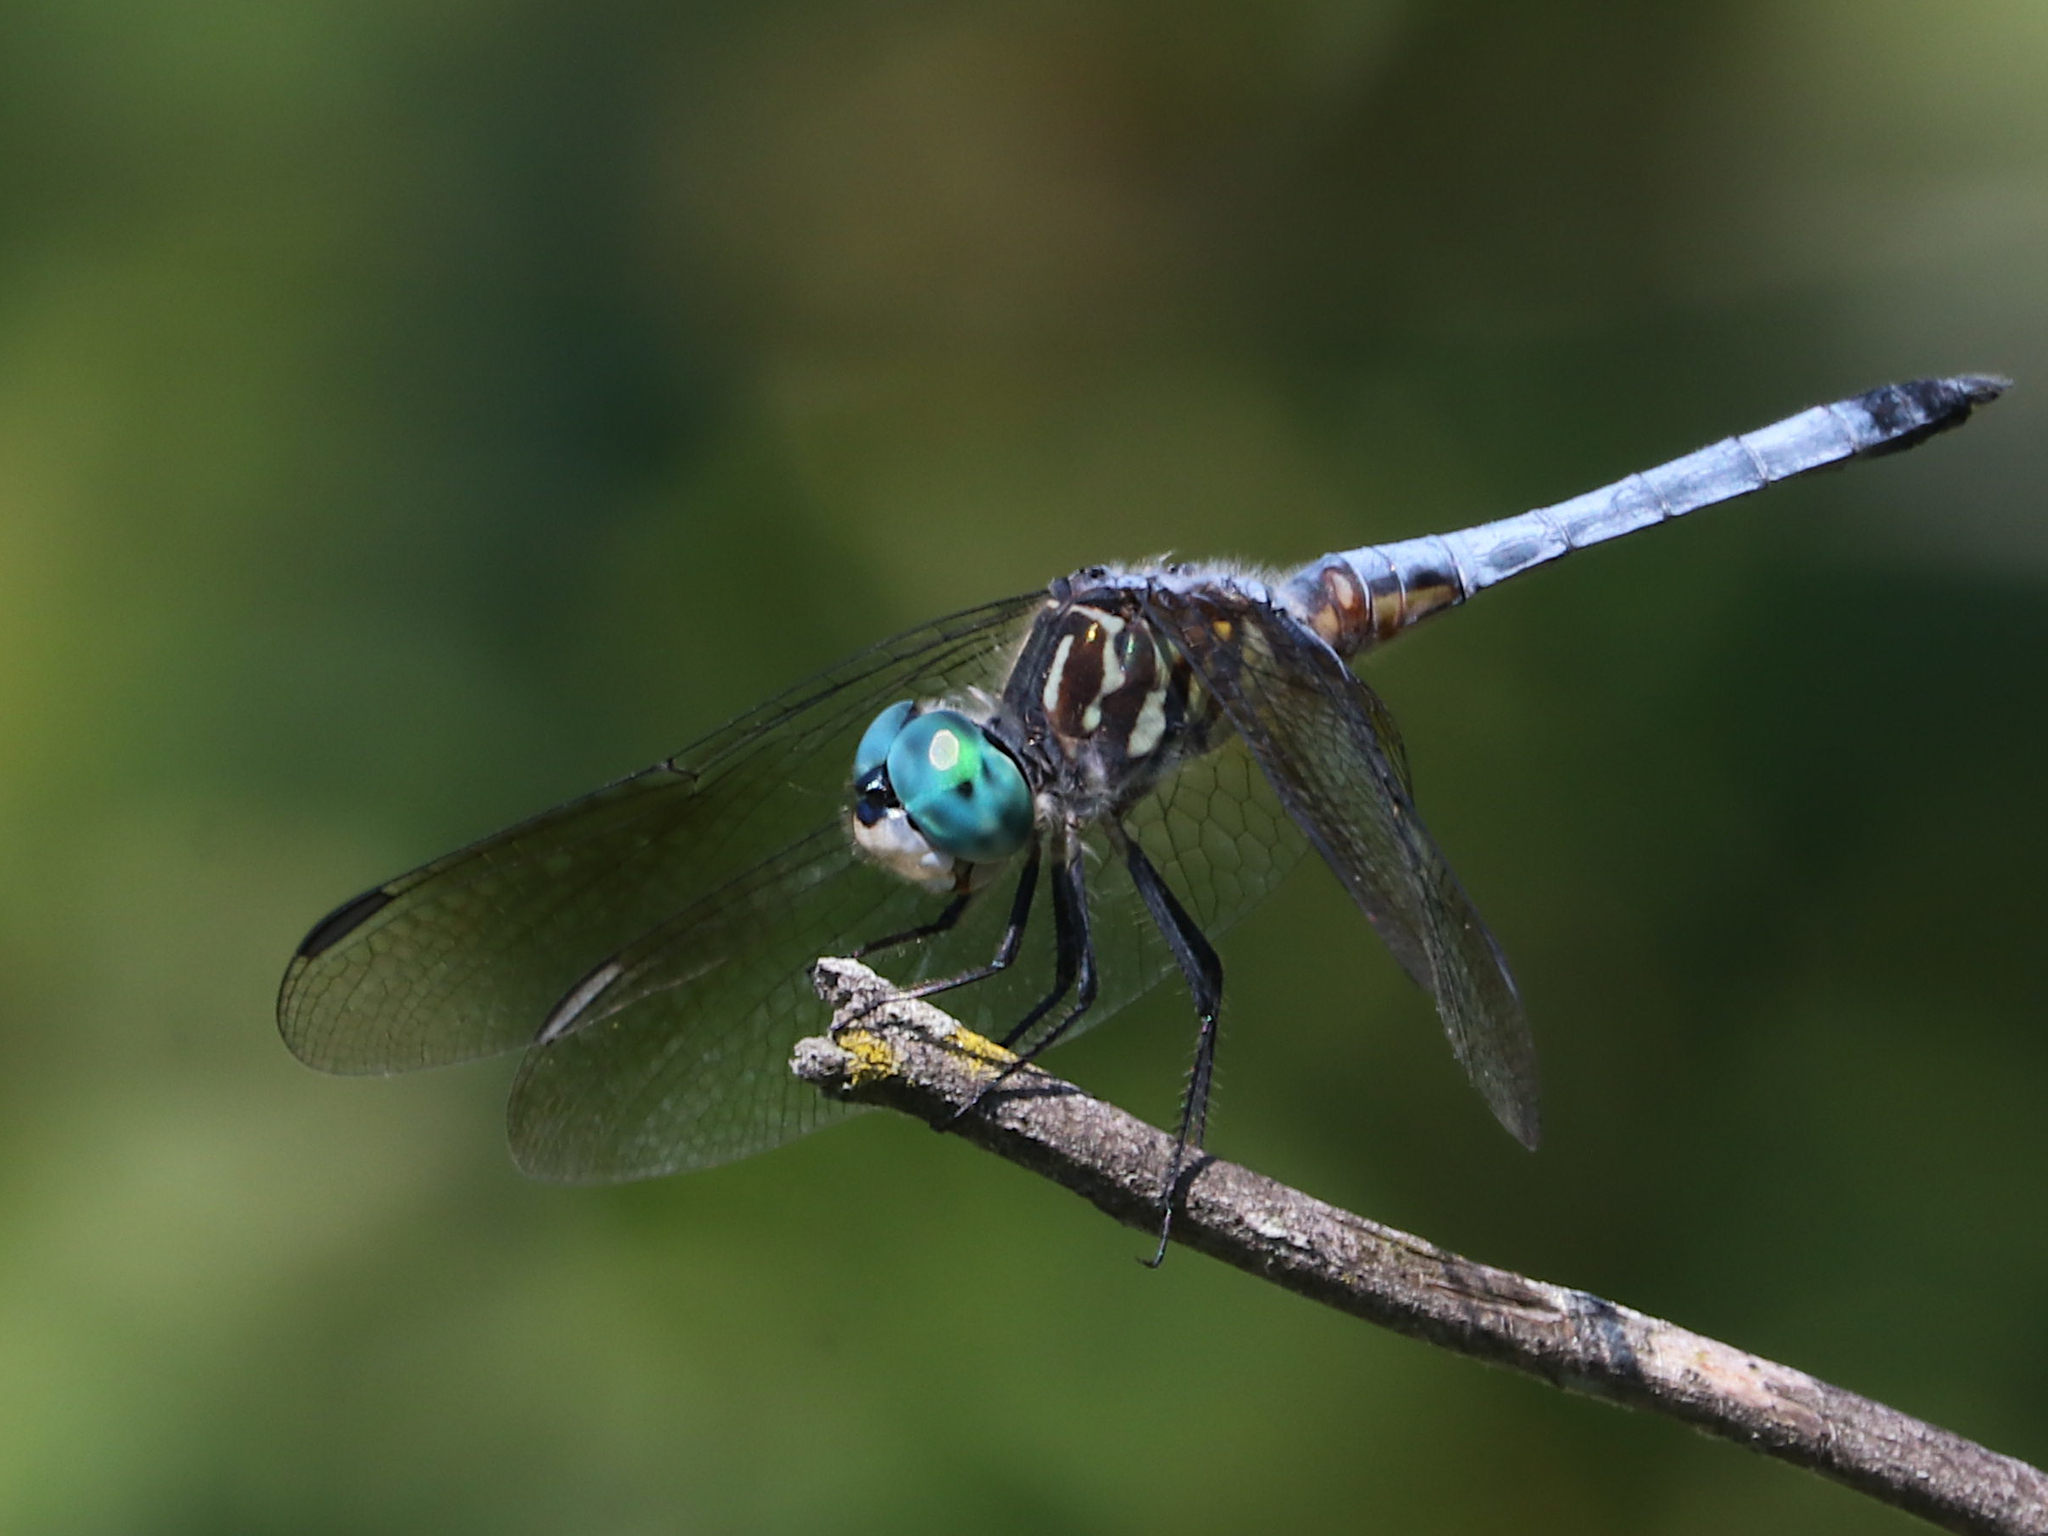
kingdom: Animalia
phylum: Arthropoda
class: Insecta
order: Odonata
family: Libellulidae
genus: Pachydiplax
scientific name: Pachydiplax longipennis
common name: Blue dasher
